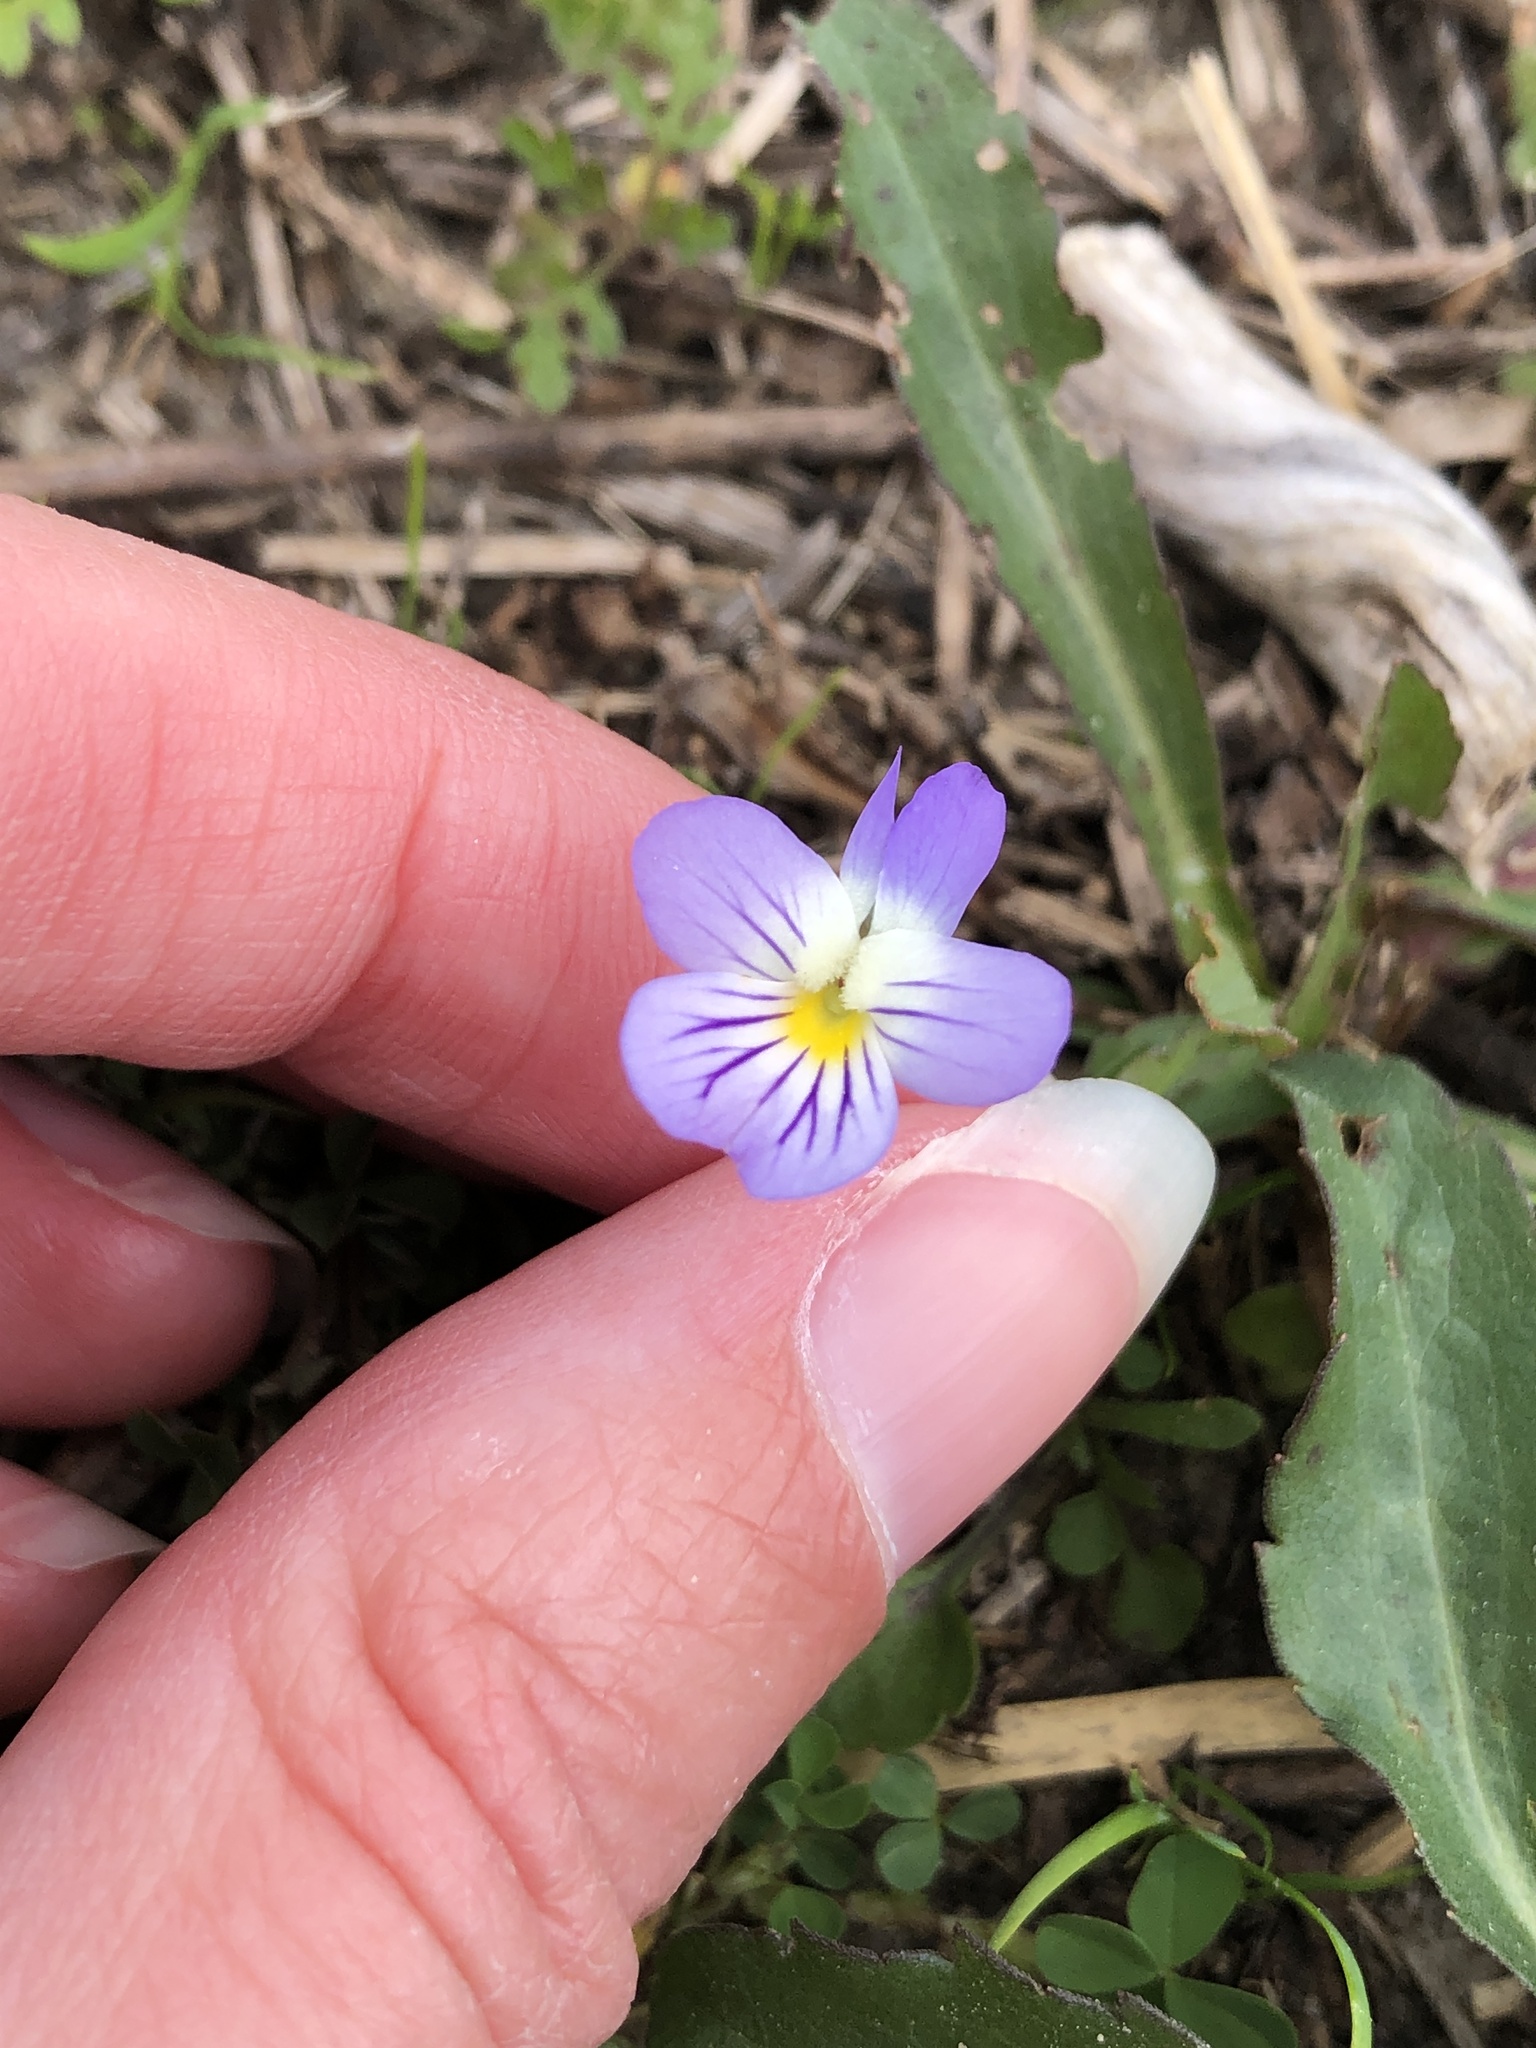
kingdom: Plantae
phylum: Tracheophyta
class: Magnoliopsida
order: Malpighiales
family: Violaceae
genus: Viola
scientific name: Viola rafinesquei
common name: American field pansy
